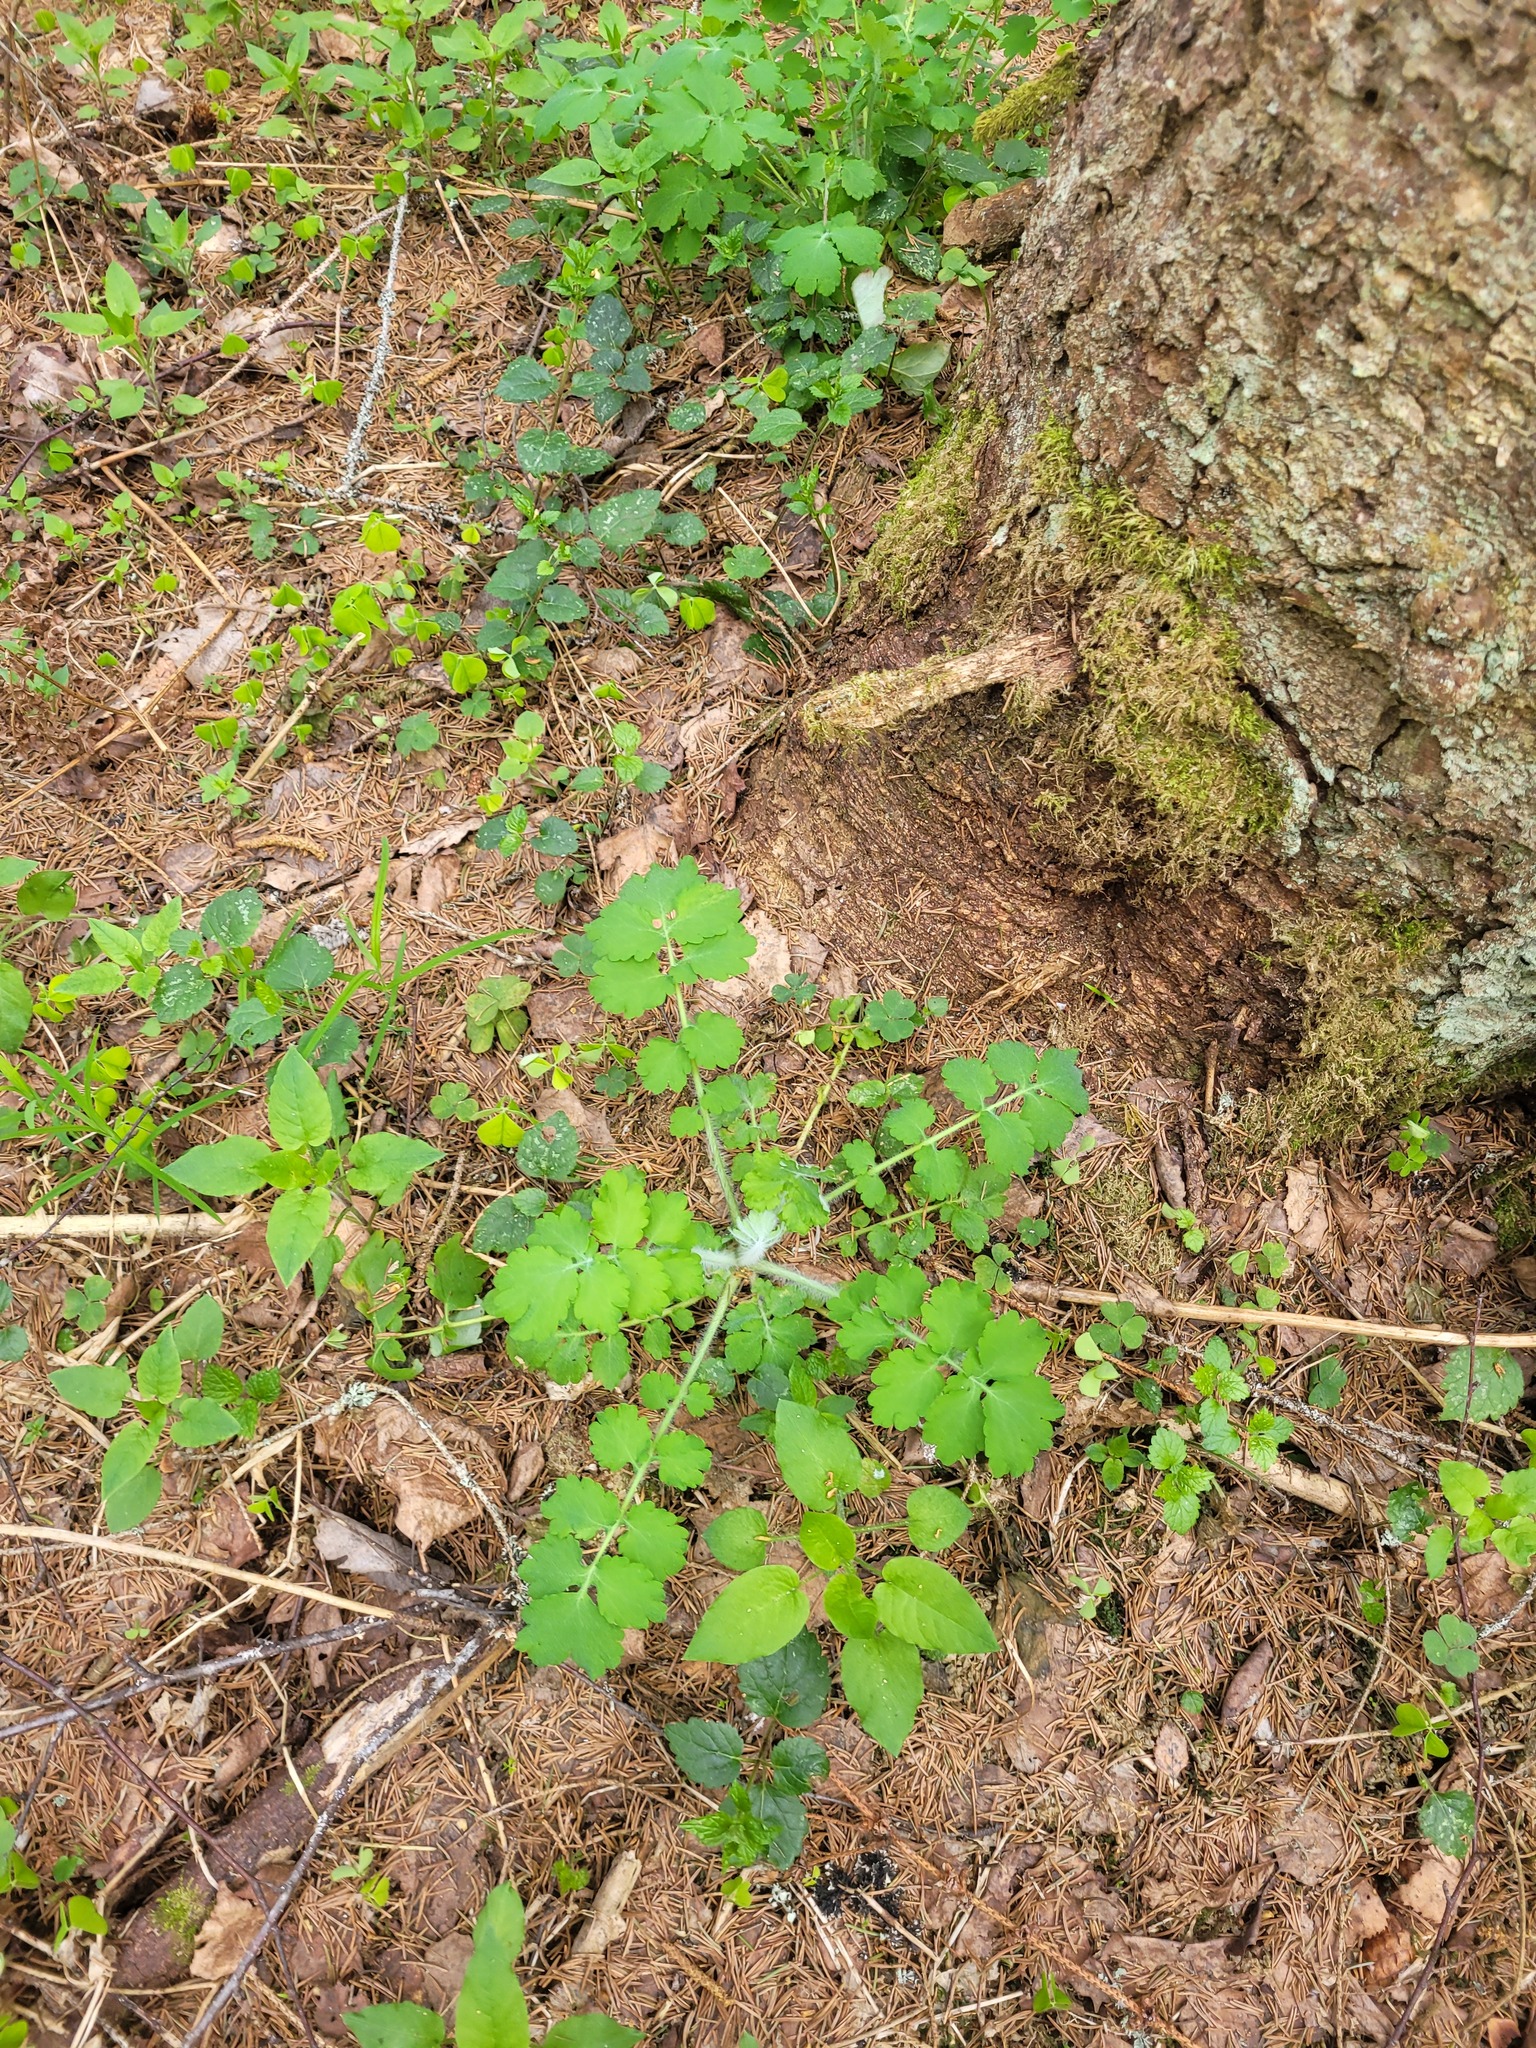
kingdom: Plantae
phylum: Tracheophyta
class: Magnoliopsida
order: Ranunculales
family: Papaveraceae
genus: Chelidonium
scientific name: Chelidonium majus
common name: Greater celandine
